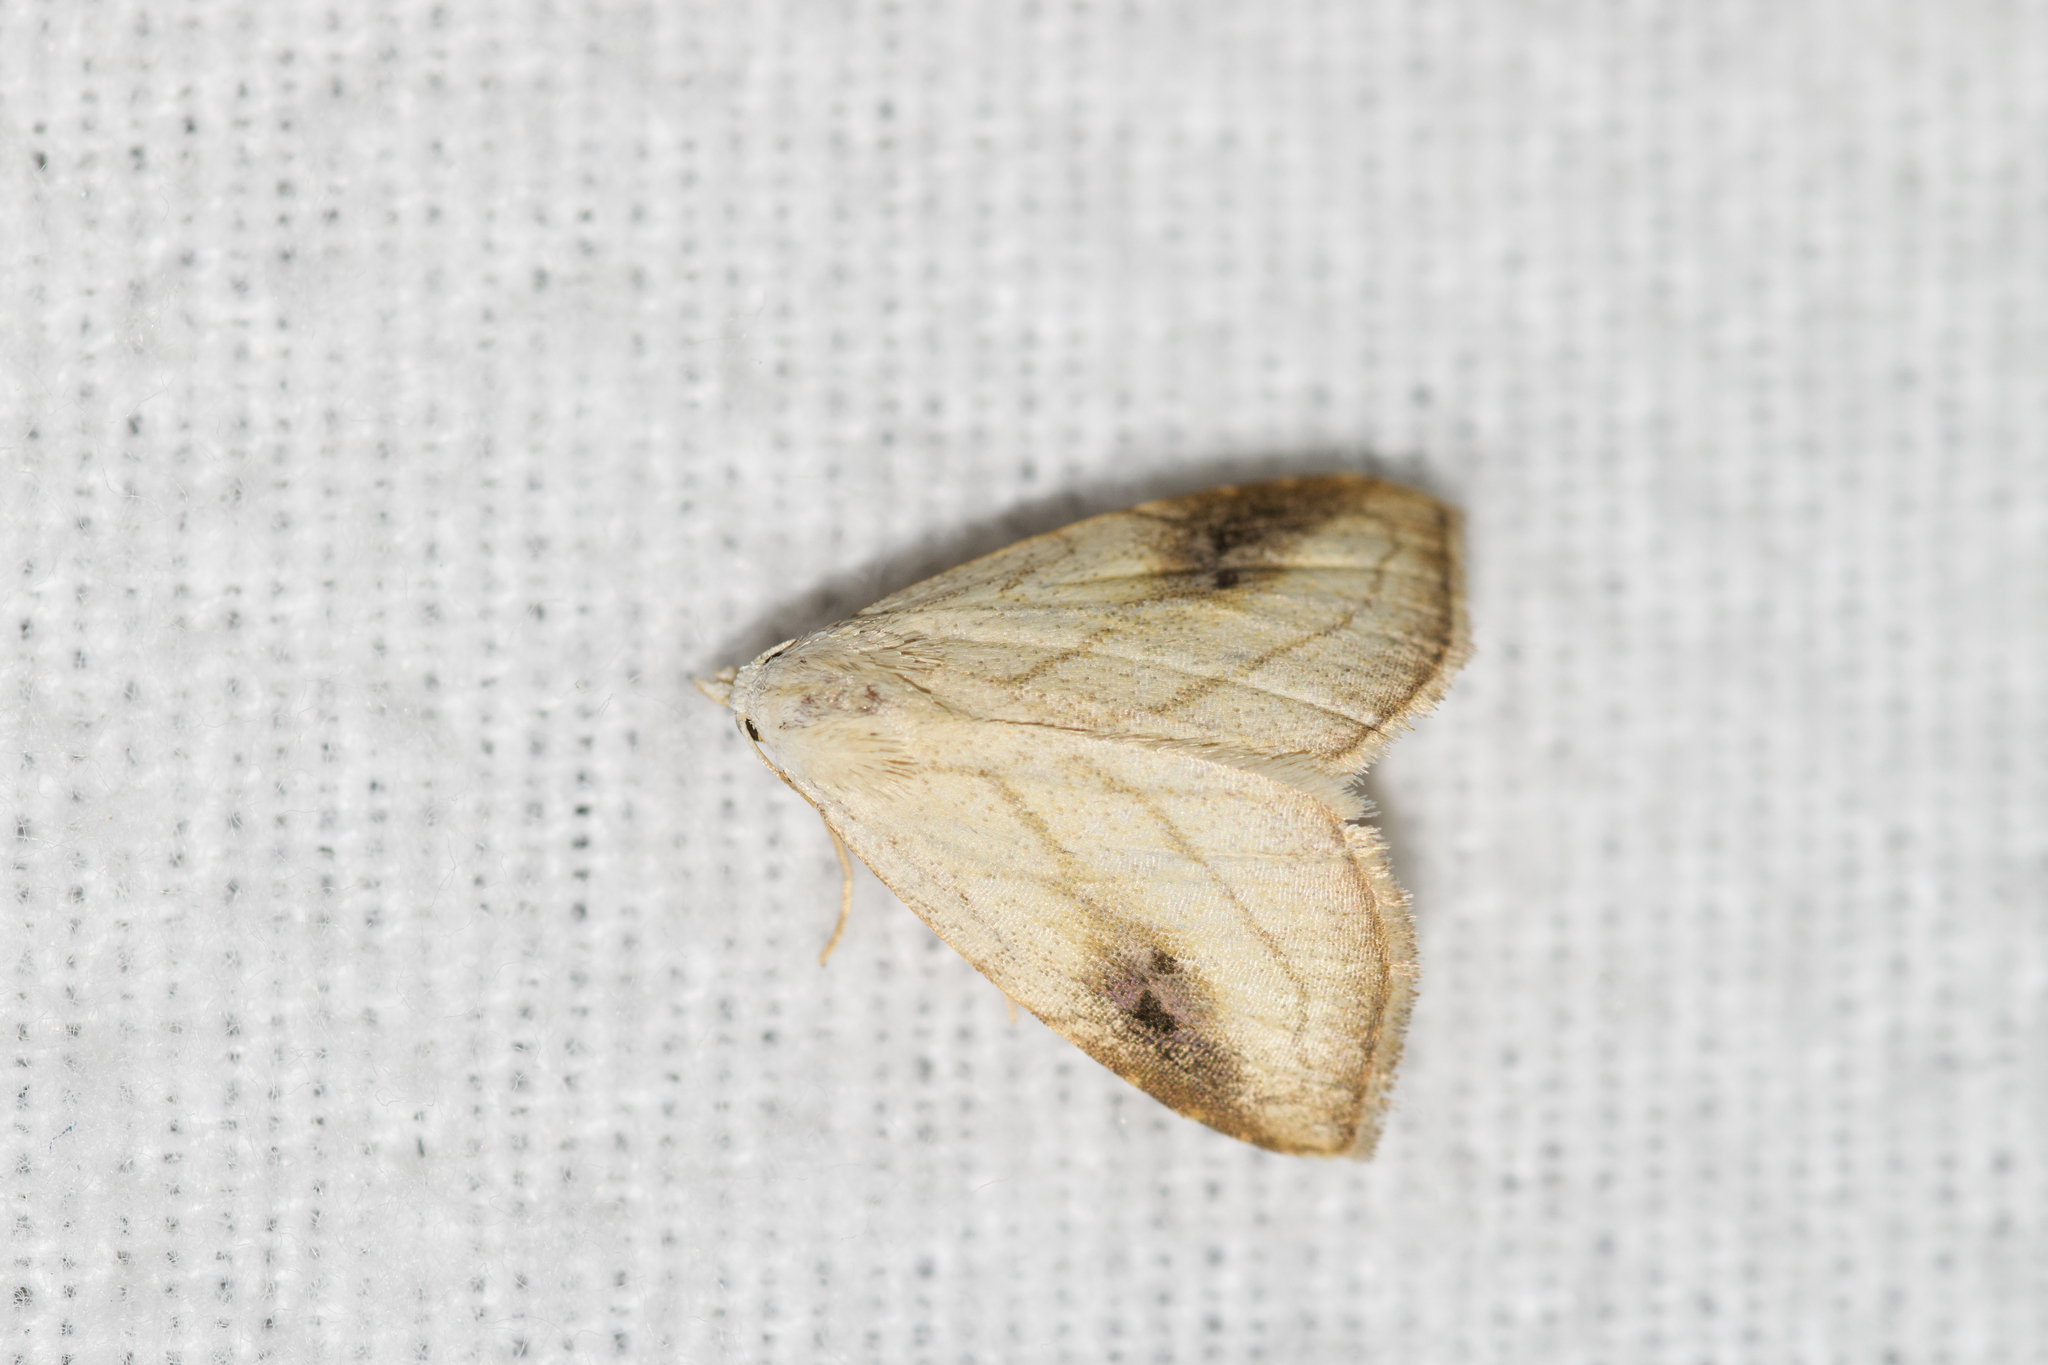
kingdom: Animalia
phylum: Arthropoda
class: Insecta
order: Lepidoptera
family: Erebidae
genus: Rivula
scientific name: Rivula propinqualis
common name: Spotted grass moth
